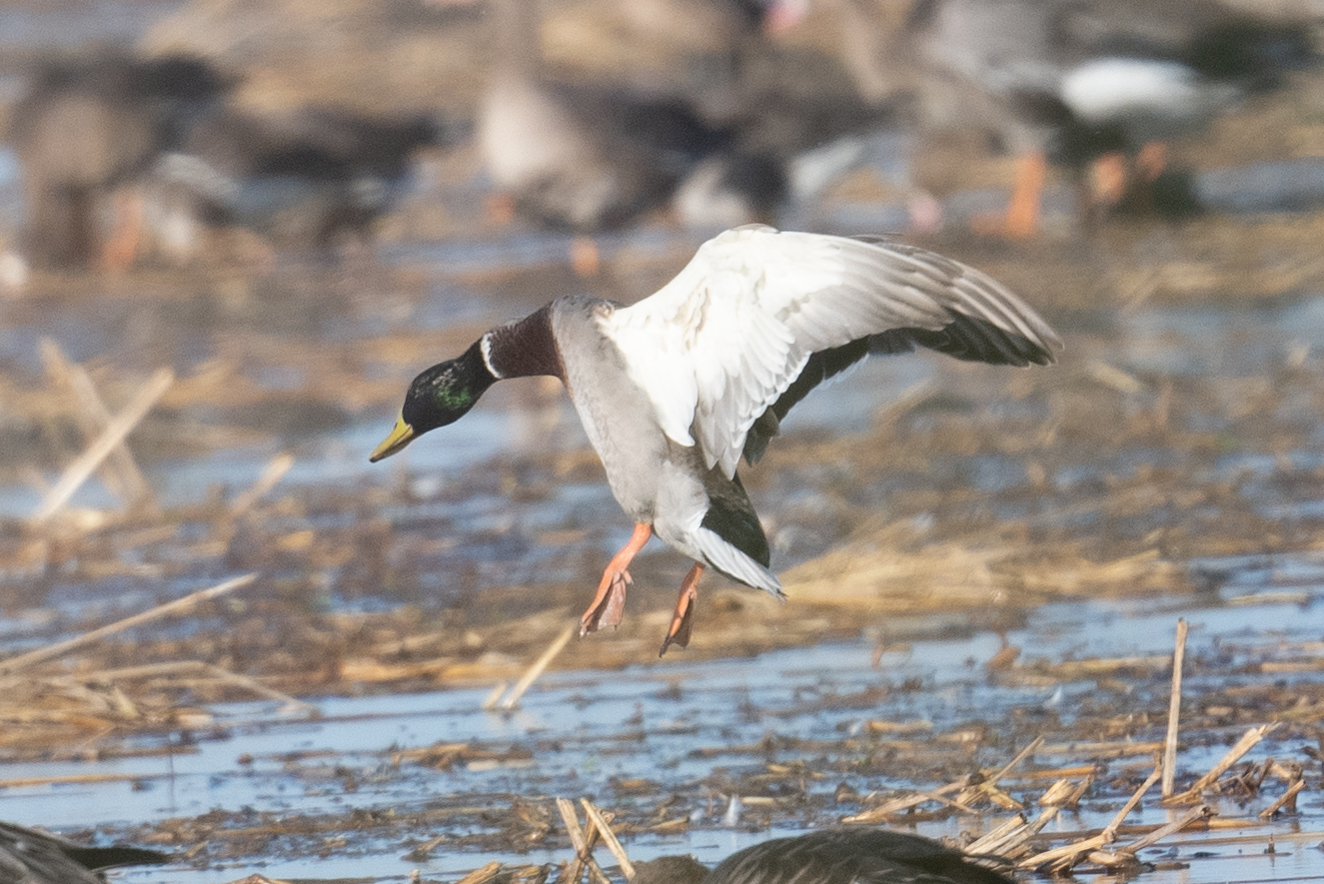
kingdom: Animalia
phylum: Chordata
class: Aves
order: Anseriformes
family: Anatidae
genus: Anas
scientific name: Anas platyrhynchos
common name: Mallard
